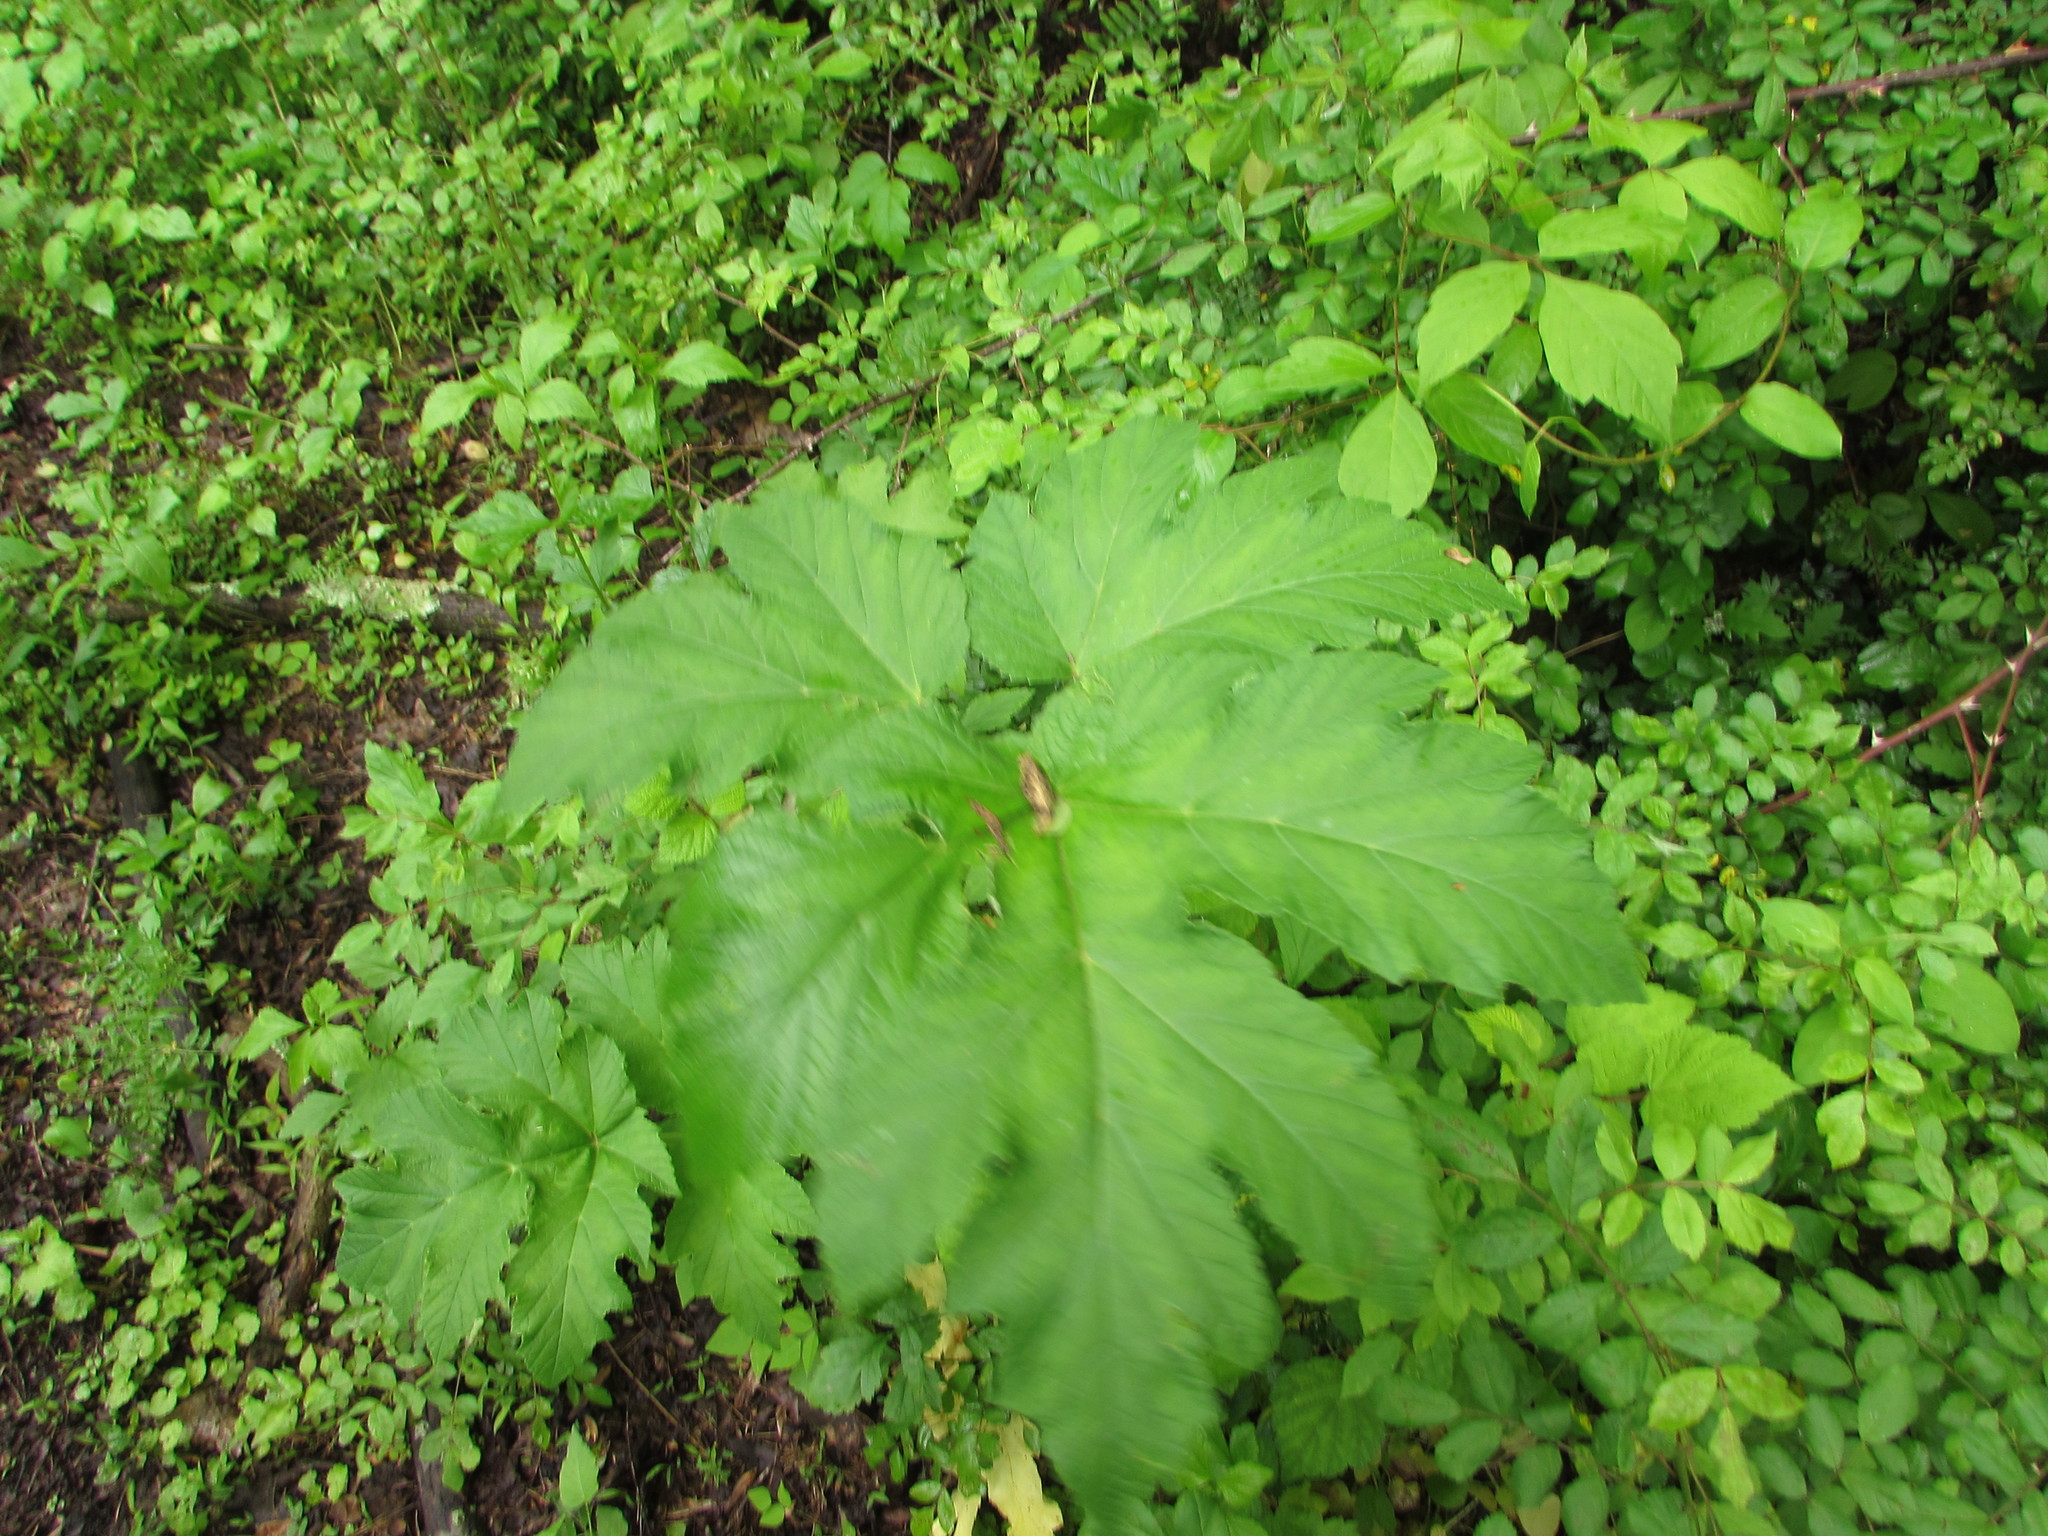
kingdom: Plantae
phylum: Tracheophyta
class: Magnoliopsida
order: Apiales
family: Apiaceae
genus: Heracleum
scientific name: Heracleum maximum
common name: American cow parsnip
